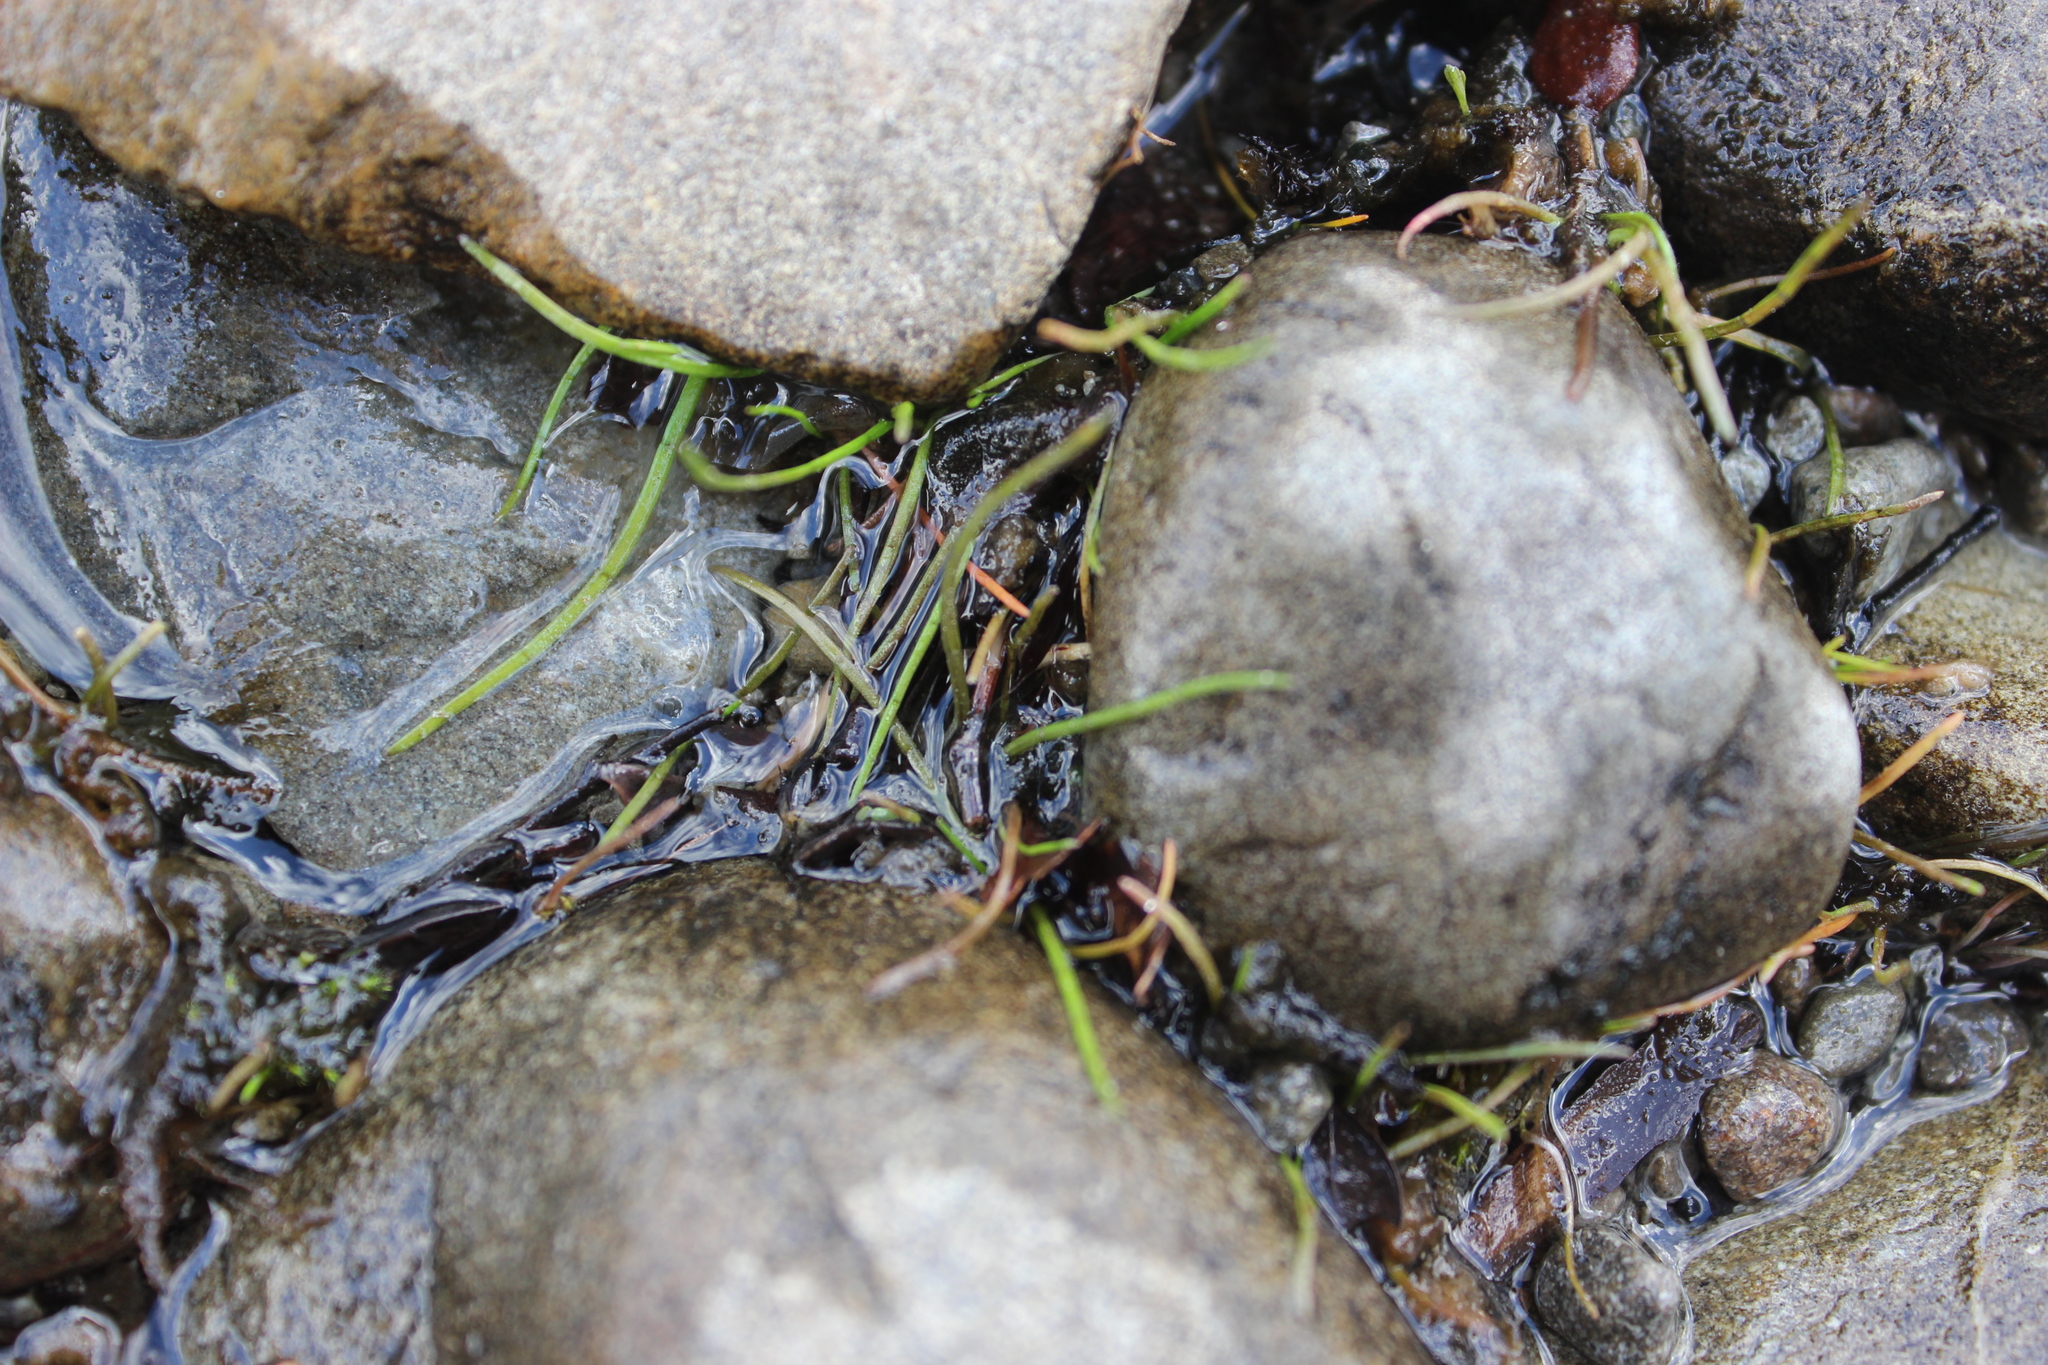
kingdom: Plantae
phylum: Tracheophyta
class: Magnoliopsida
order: Apiales
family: Apiaceae
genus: Lilaeopsis
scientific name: Lilaeopsis novae-zelandiae
